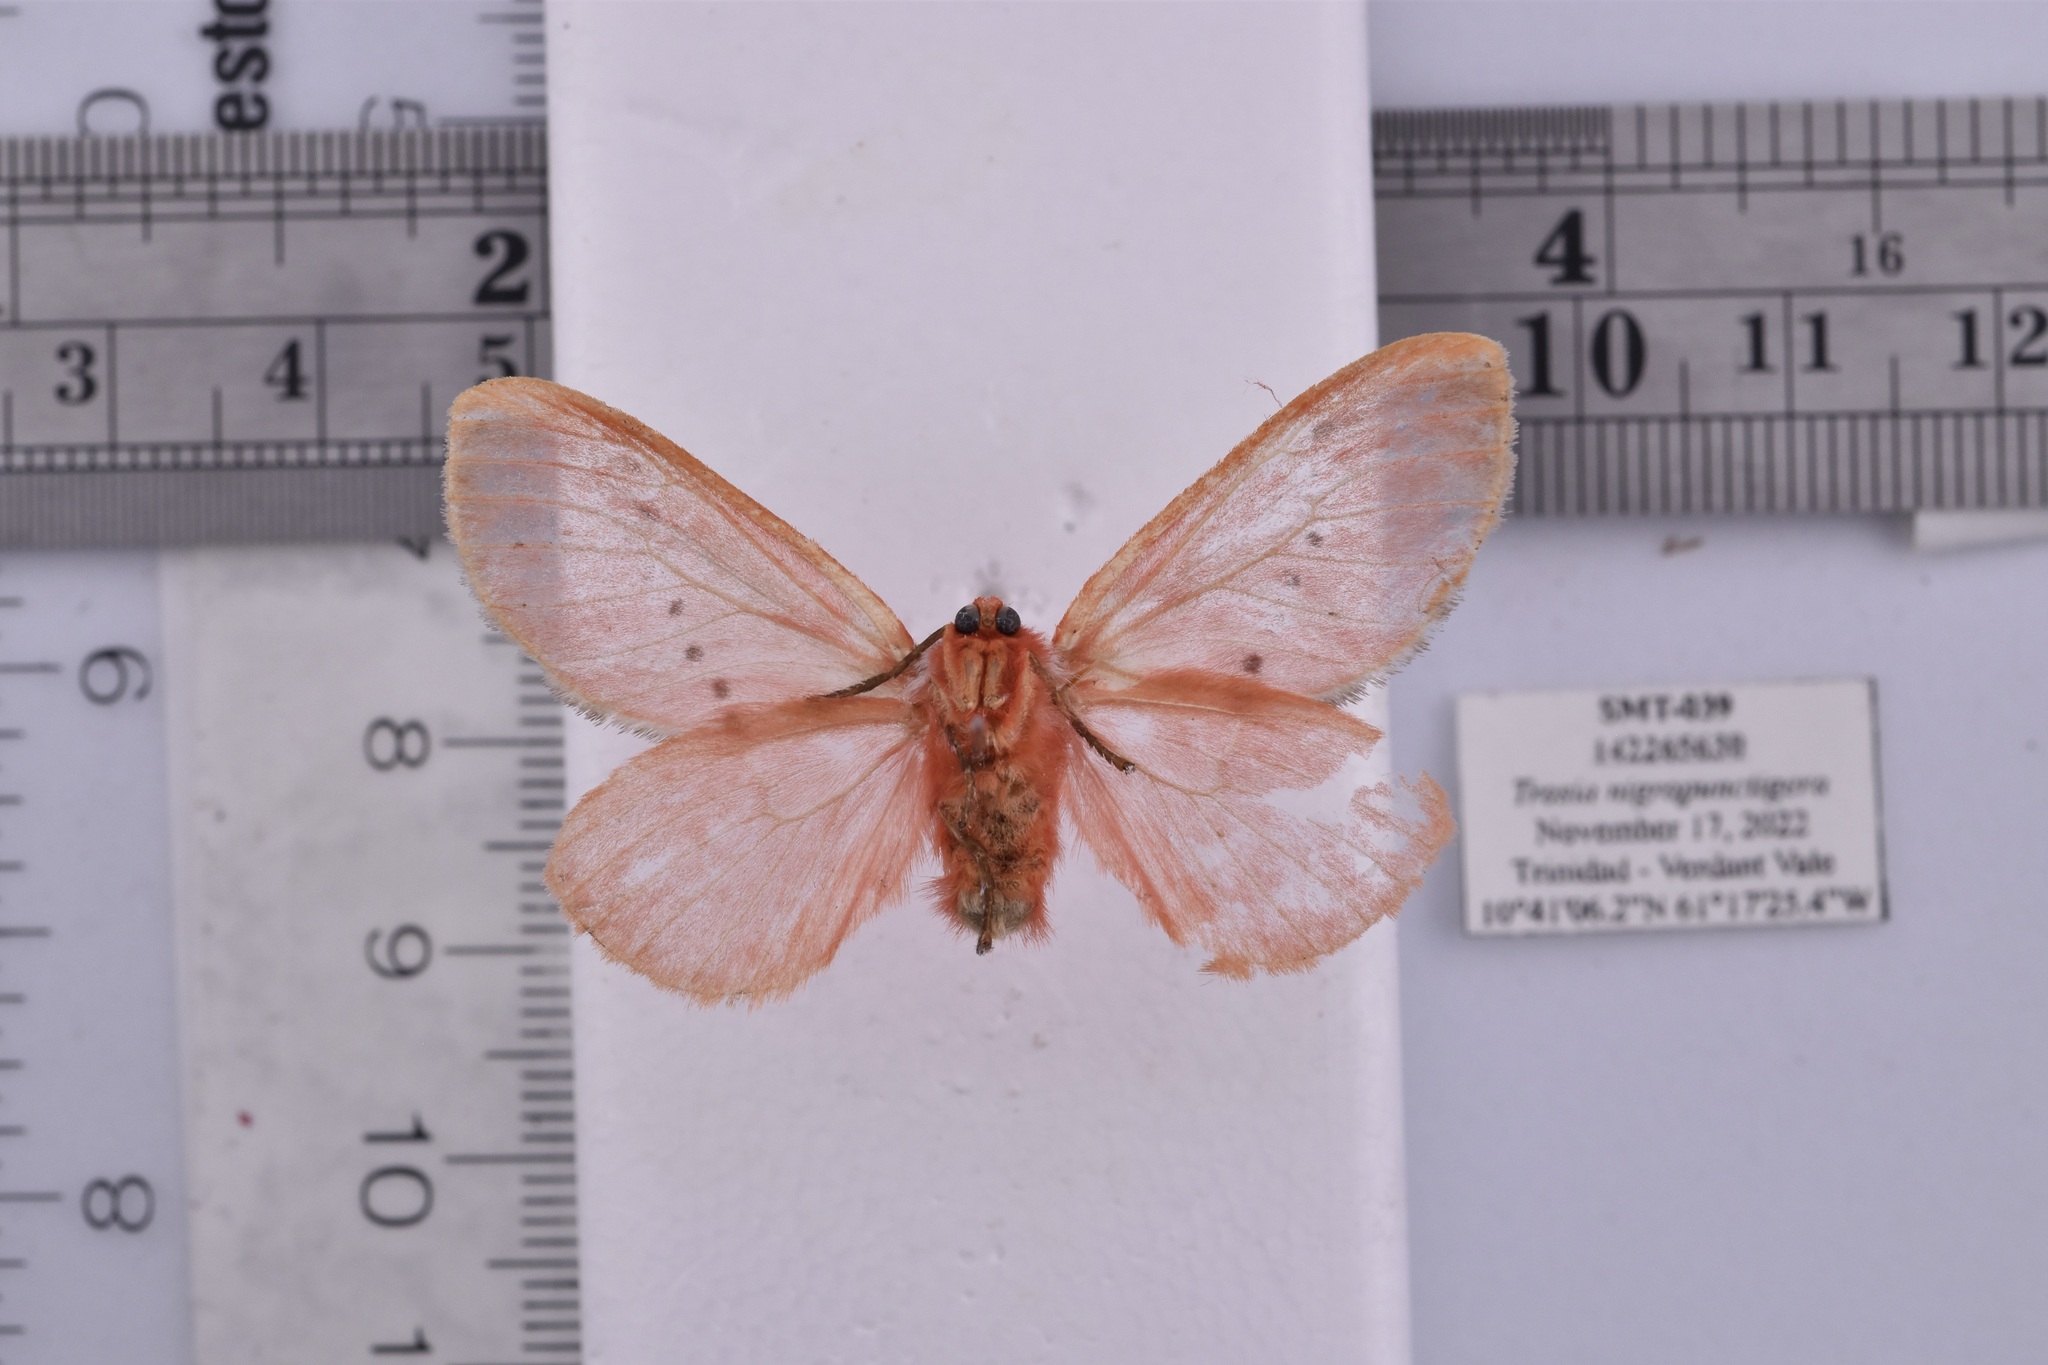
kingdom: Animalia
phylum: Arthropoda
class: Insecta
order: Lepidoptera
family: Megalopygidae
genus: Trosia
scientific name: Trosia semirufa
